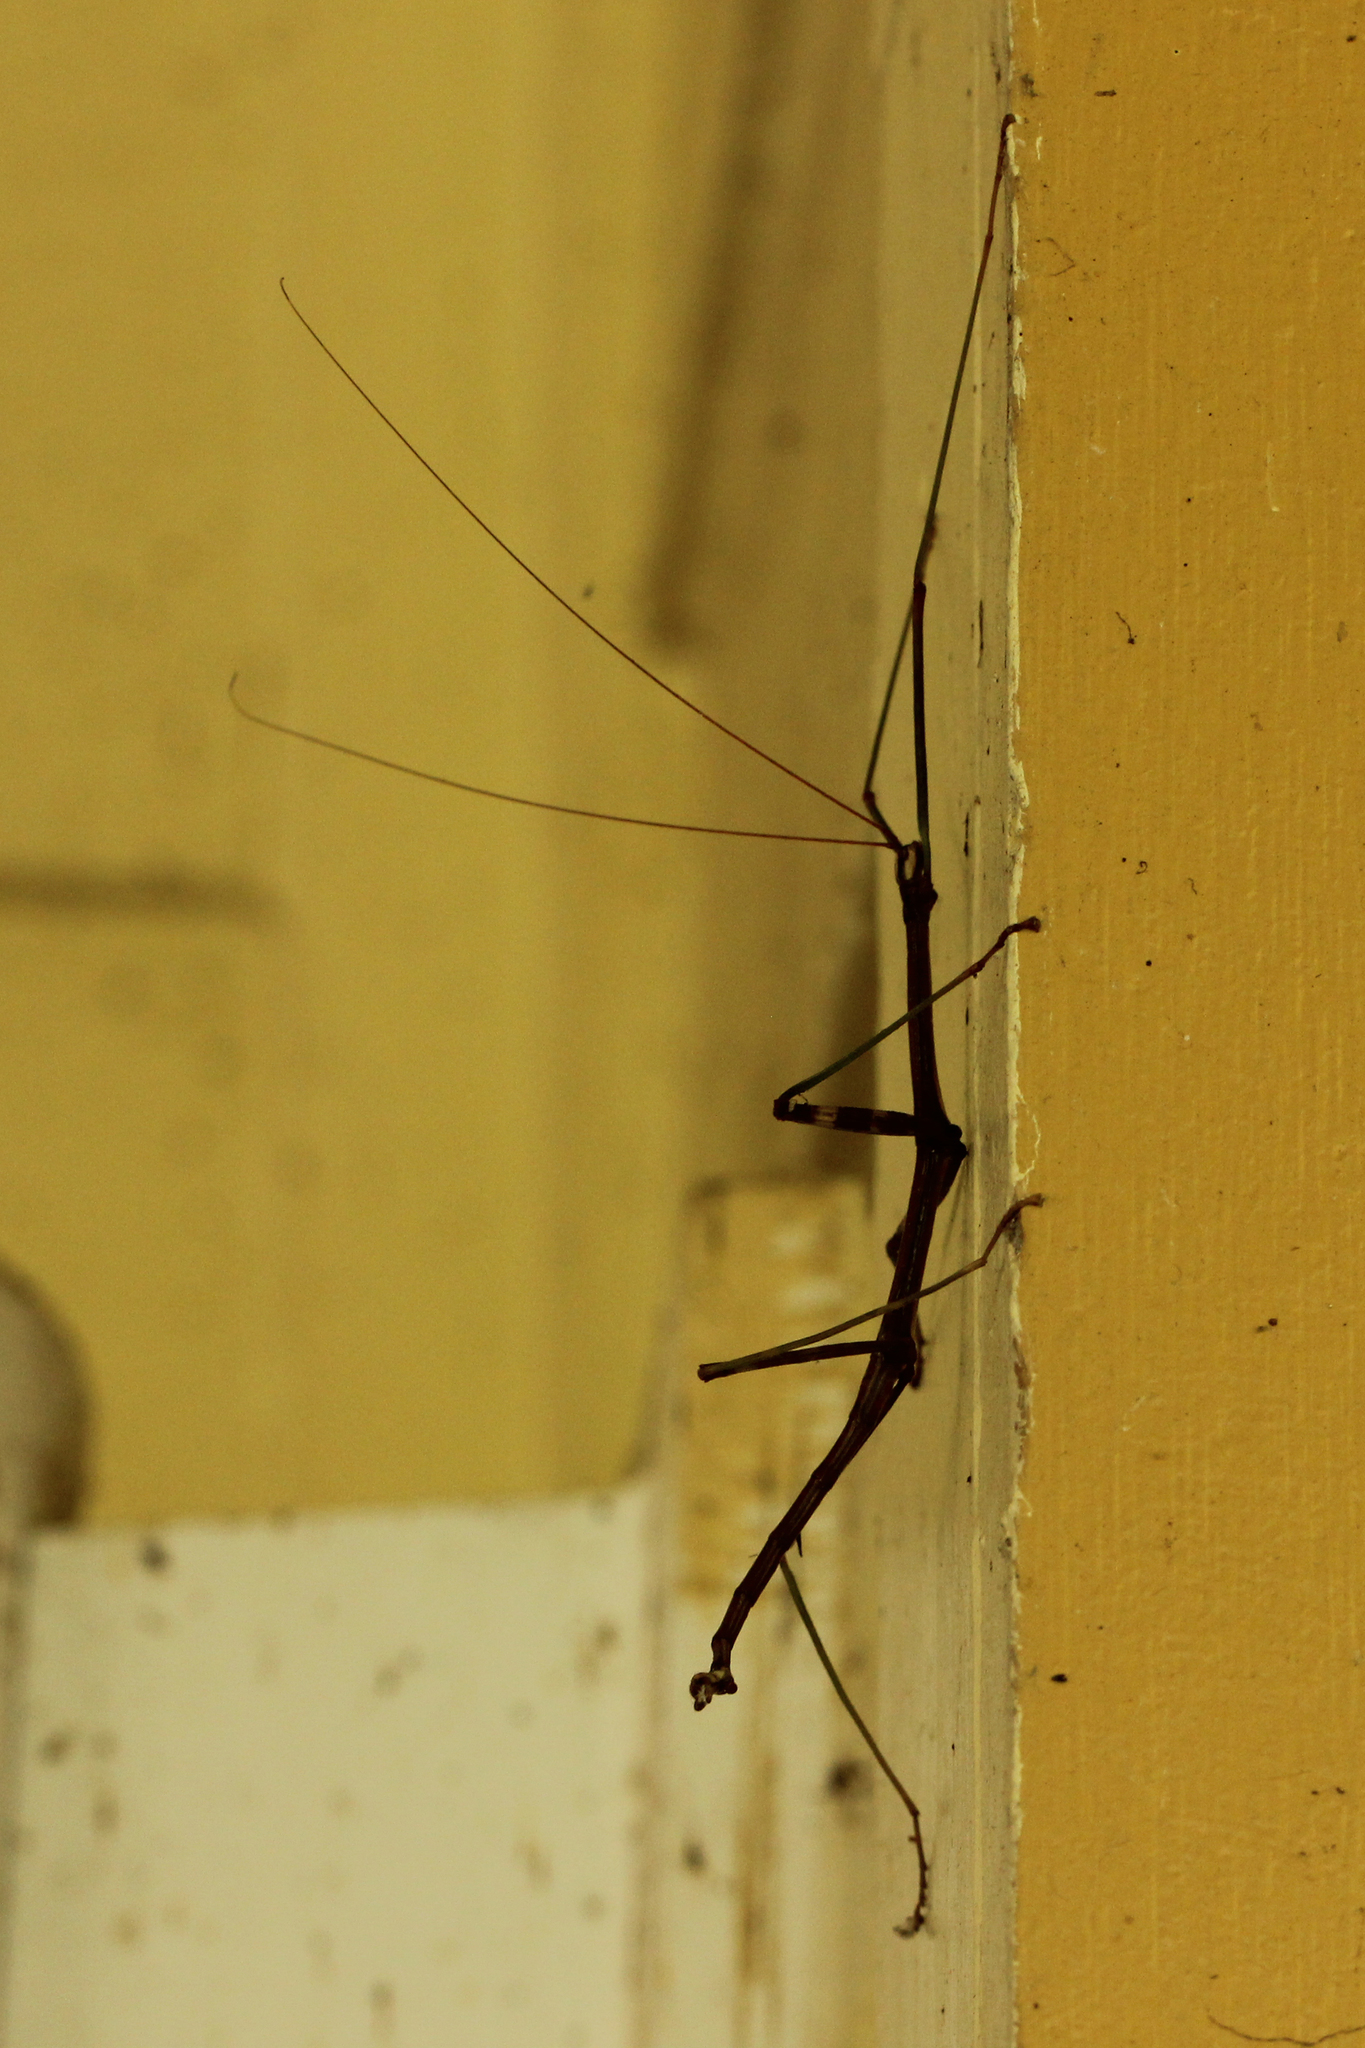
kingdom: Animalia
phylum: Arthropoda
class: Insecta
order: Phasmida
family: Diapheromeridae
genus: Diapheromera
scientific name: Diapheromera femorata
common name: Common american walkingstick
